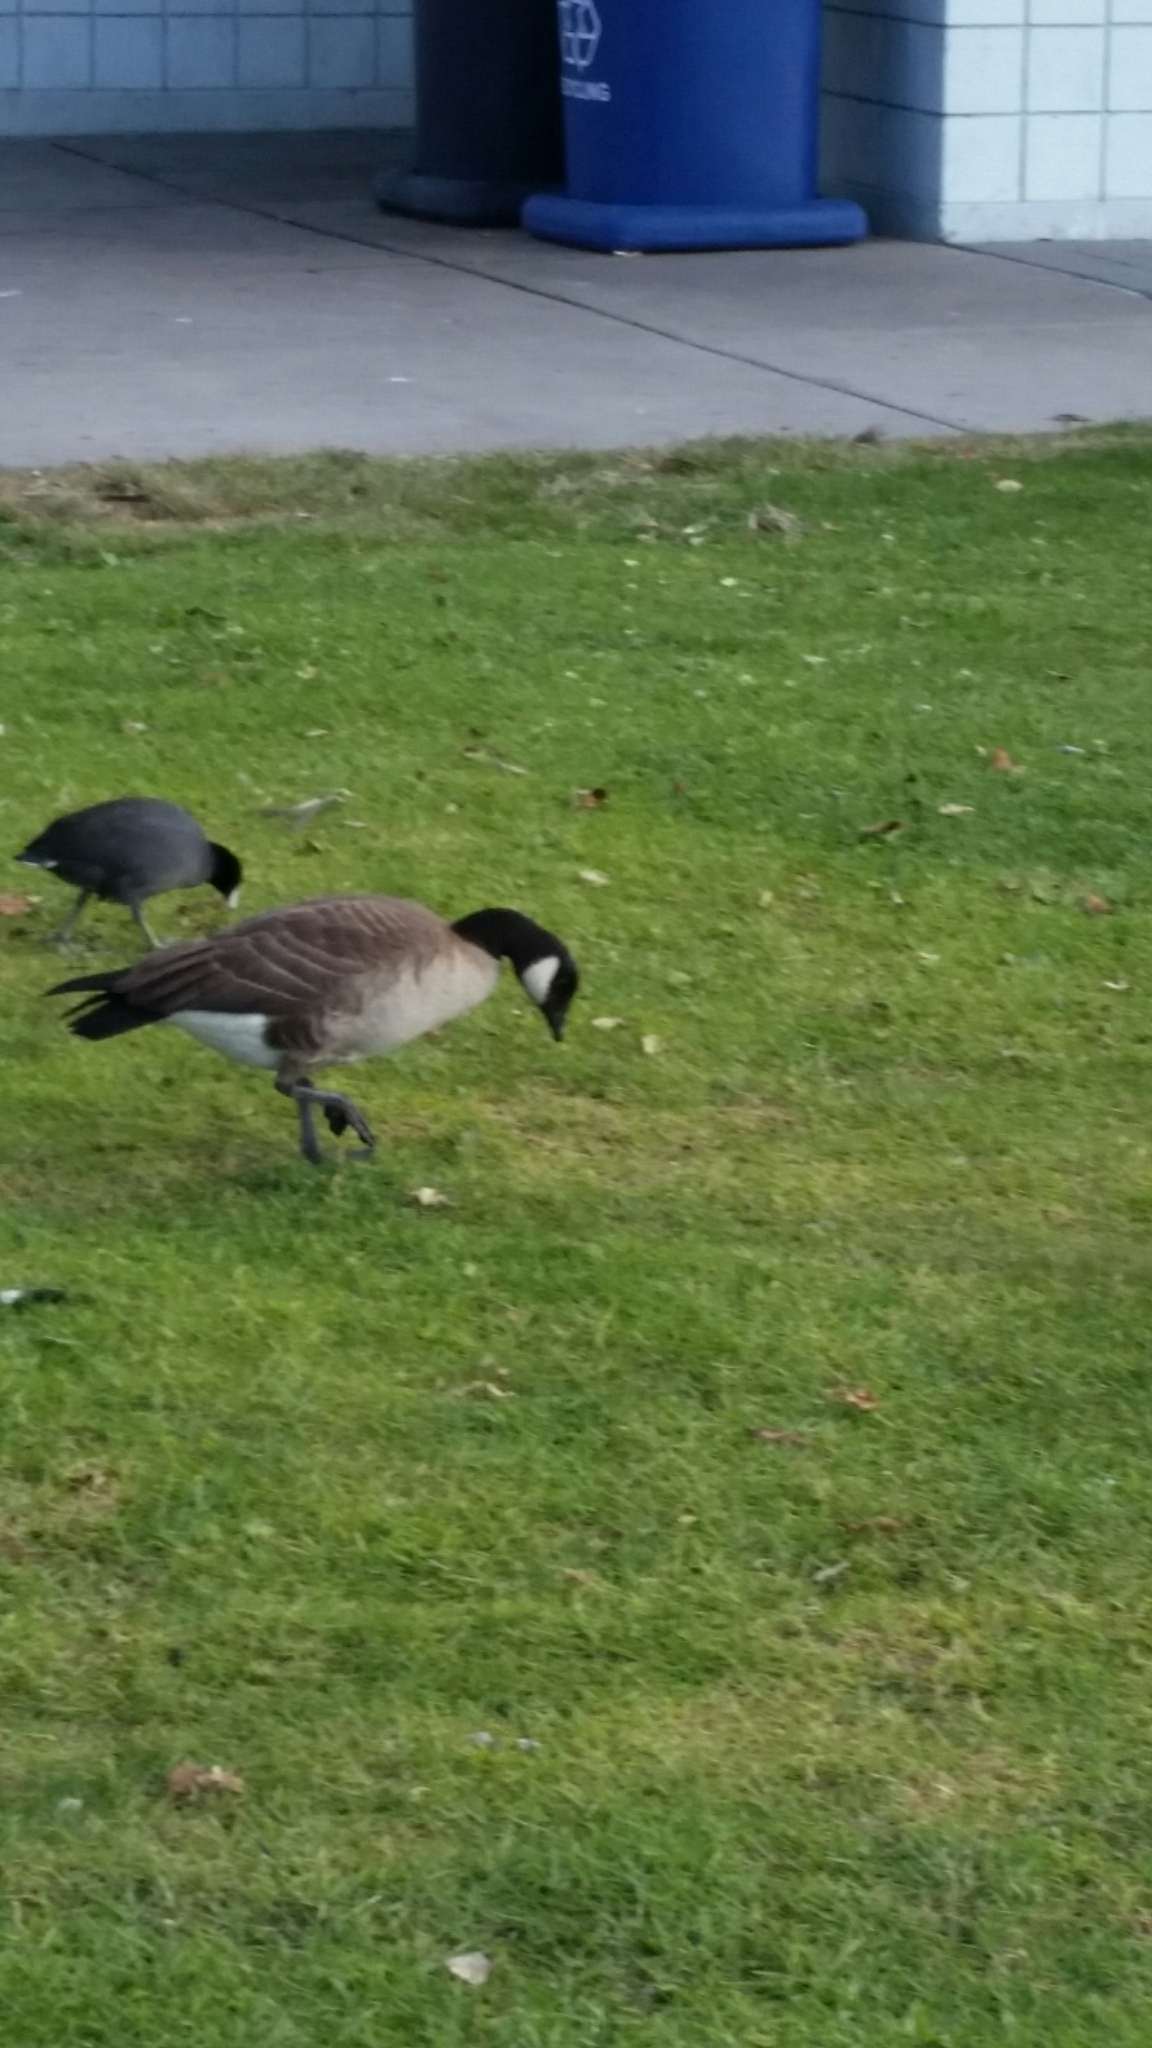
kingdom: Animalia
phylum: Chordata
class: Aves
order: Anseriformes
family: Anatidae
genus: Branta
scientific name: Branta hutchinsii
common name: Cackling goose
